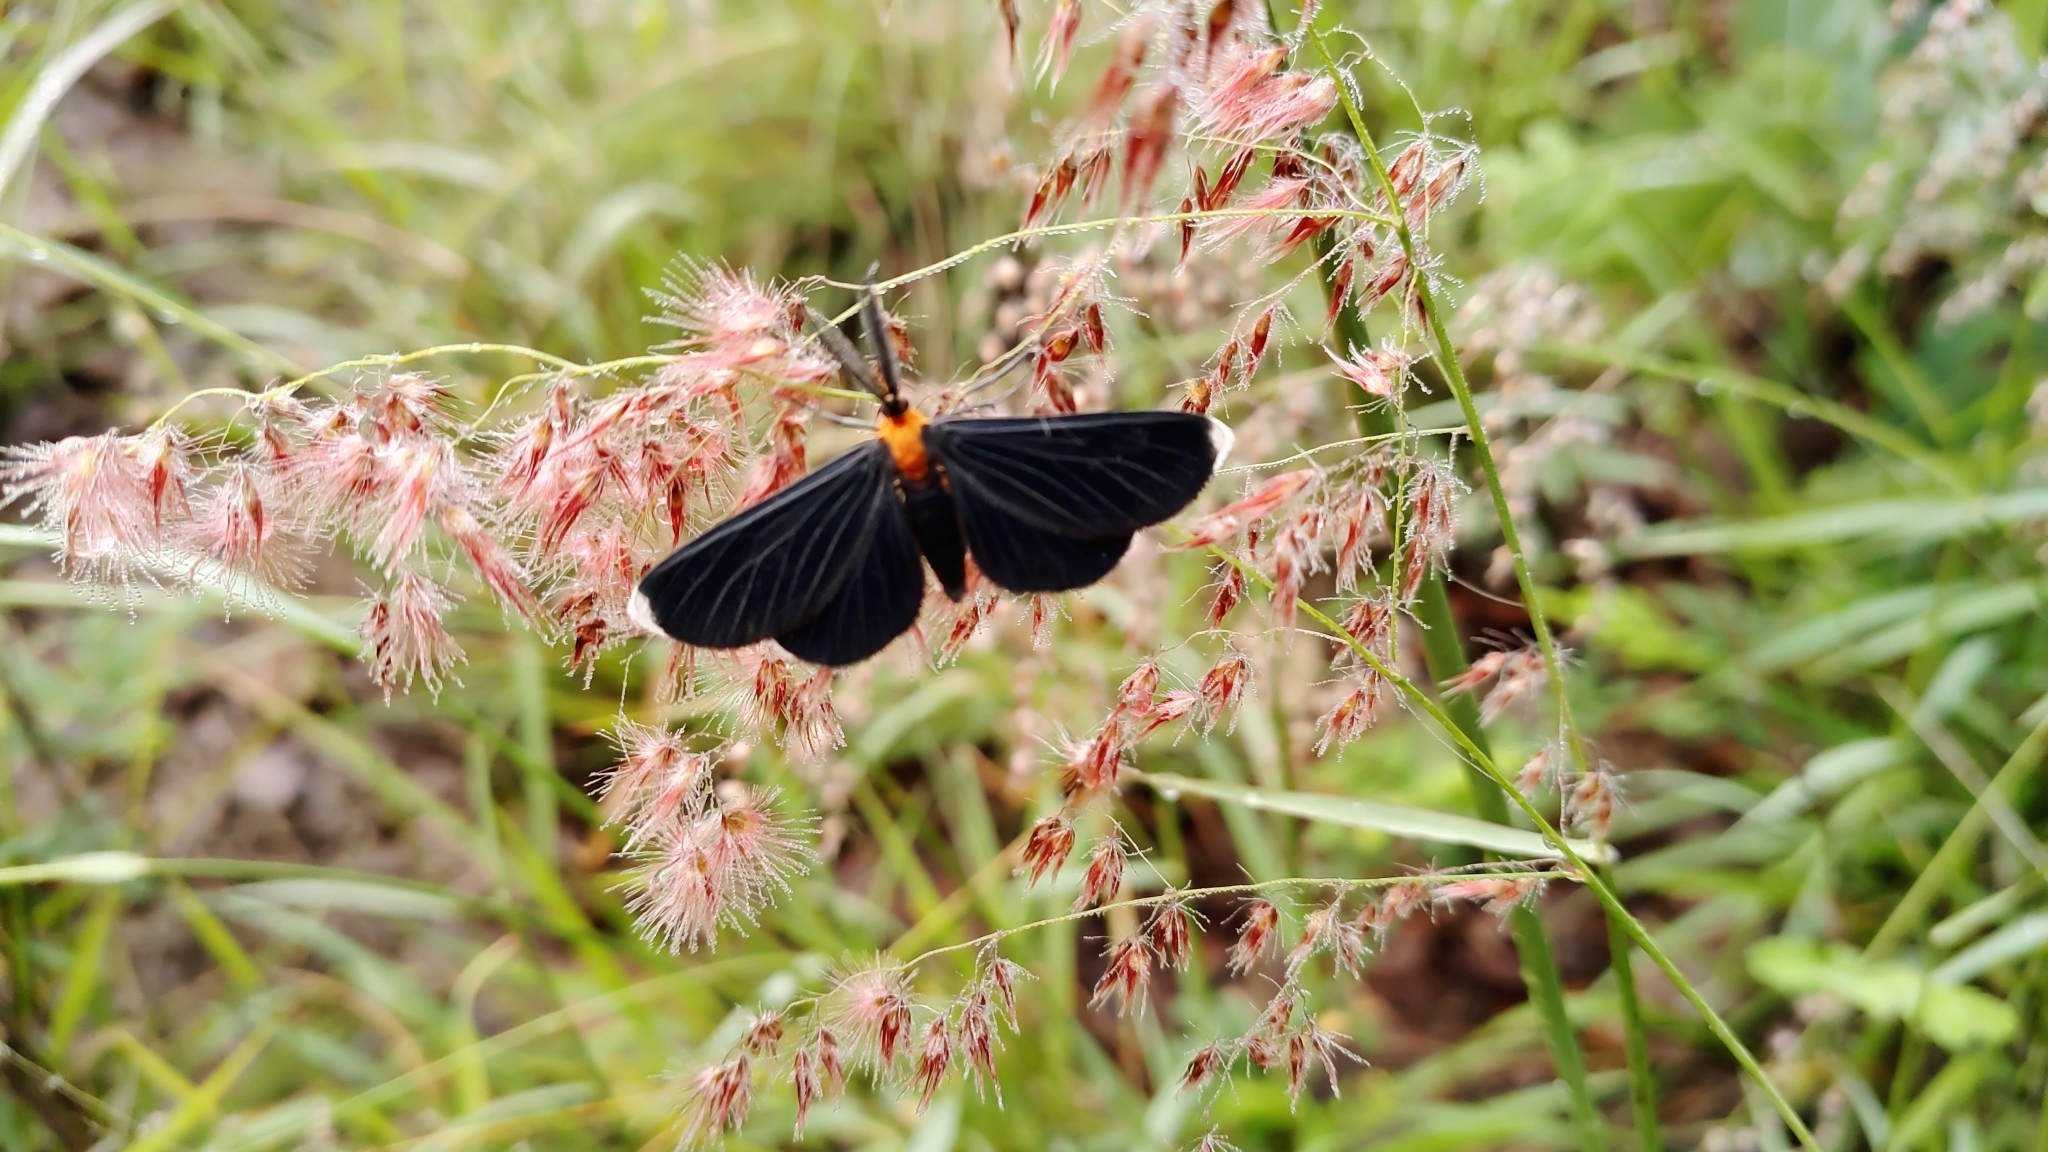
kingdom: Animalia
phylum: Arthropoda
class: Insecta
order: Lepidoptera
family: Geometridae
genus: Melanchroia
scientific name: Melanchroia chephise
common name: White-tipped black
